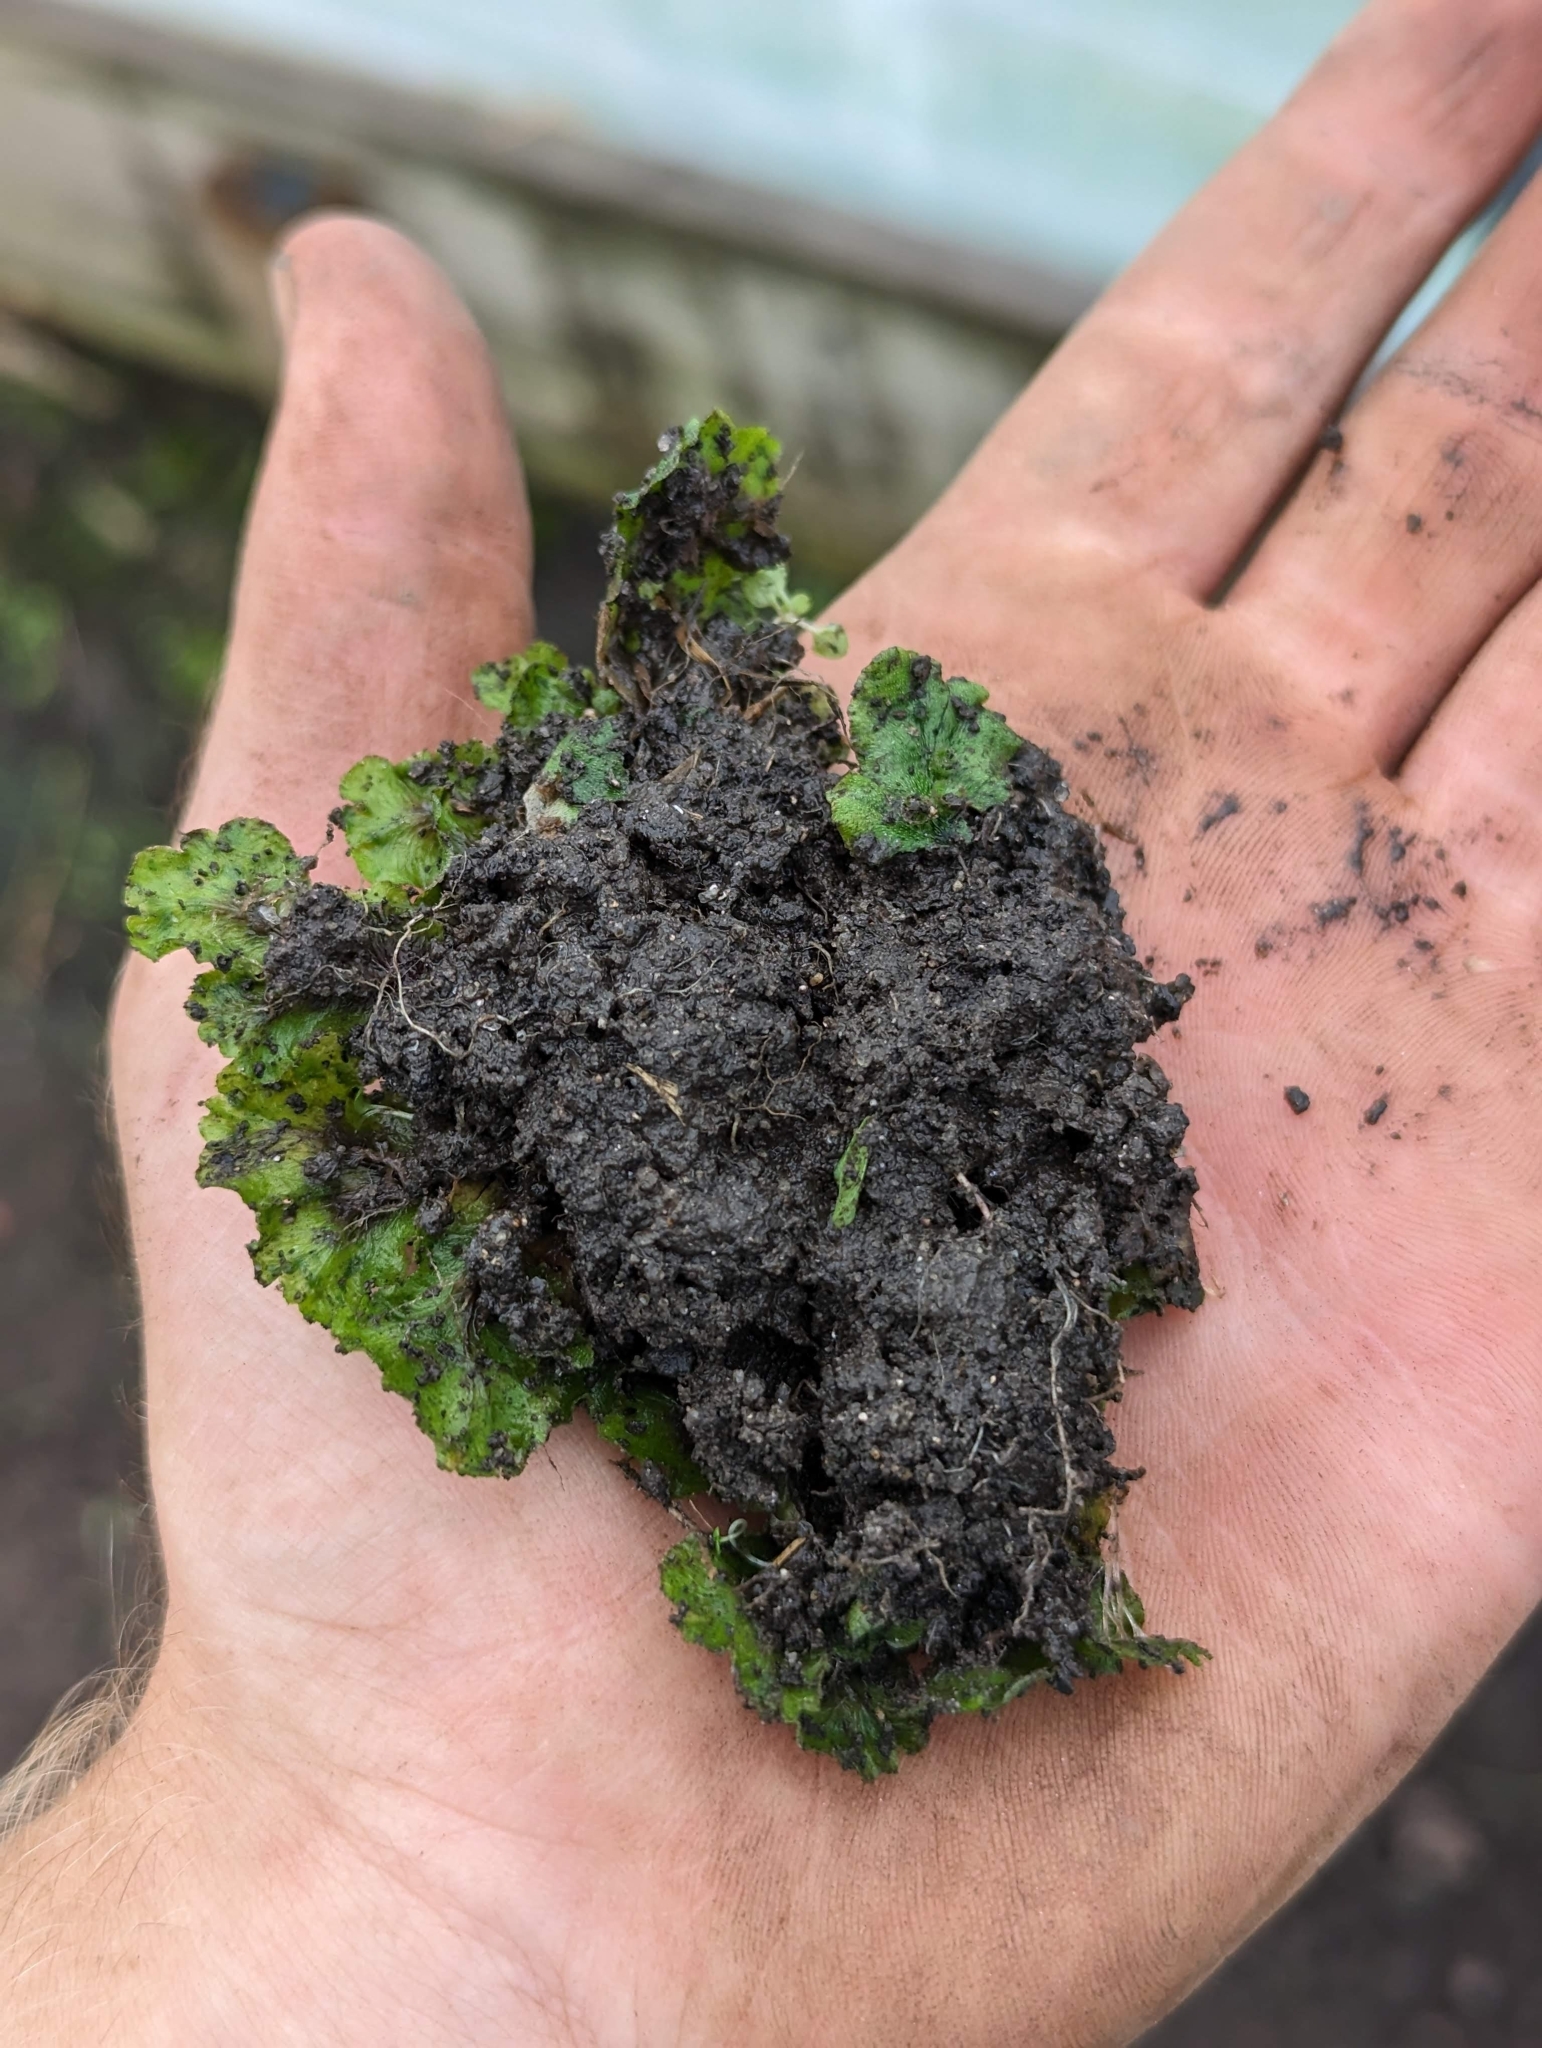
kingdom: Plantae
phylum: Marchantiophyta
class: Marchantiopsida
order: Marchantiales
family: Marchantiaceae
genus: Marchantia
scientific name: Marchantia polymorpha
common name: Common liverwort
